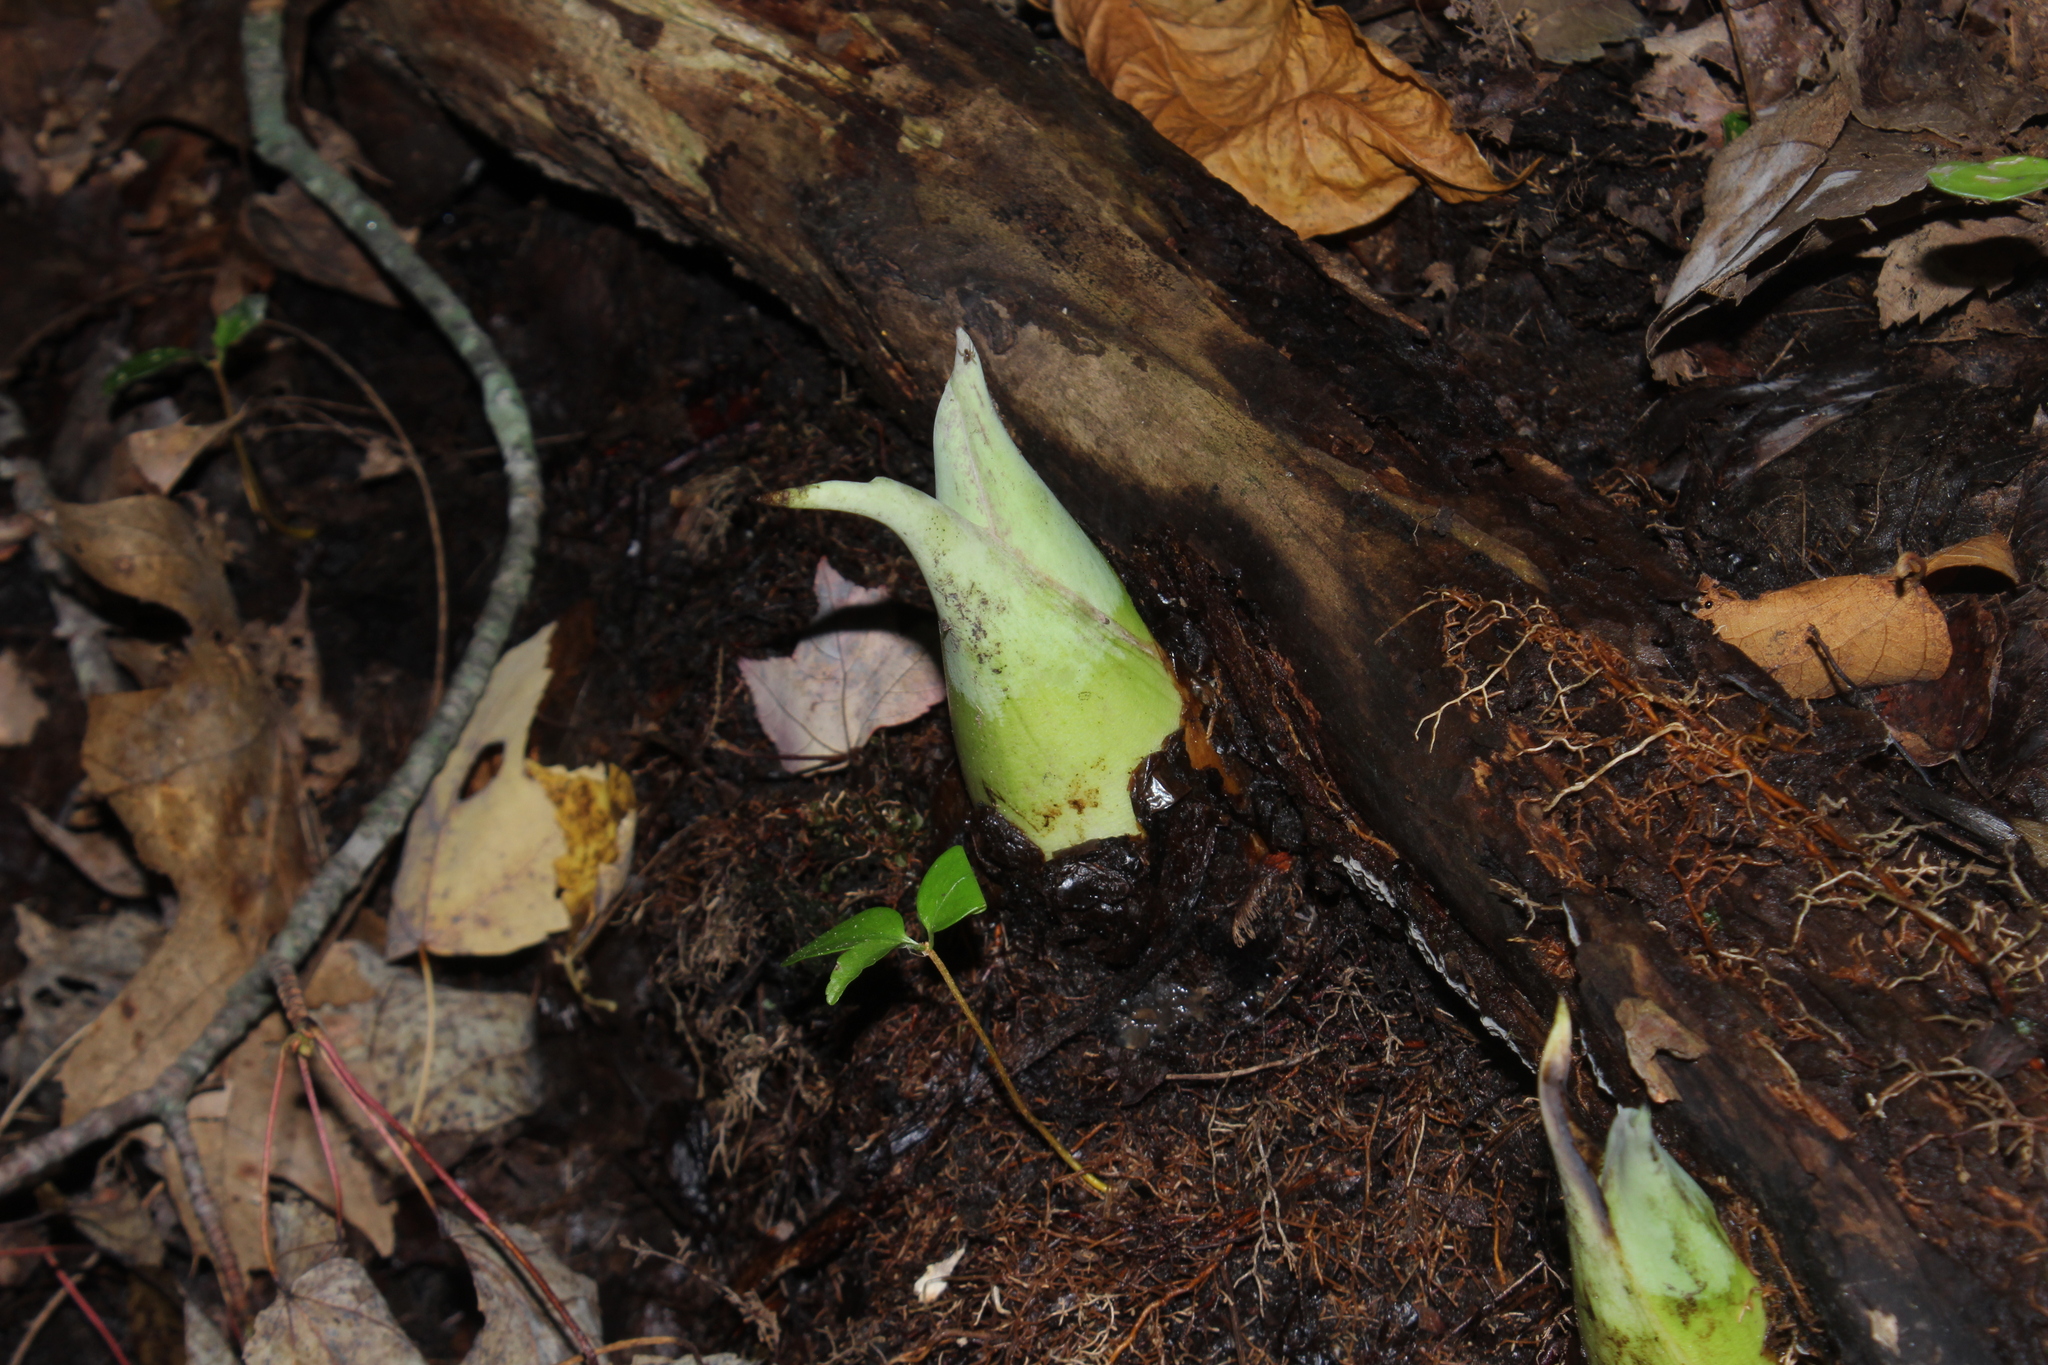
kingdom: Plantae
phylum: Tracheophyta
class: Liliopsida
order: Alismatales
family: Araceae
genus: Symplocarpus
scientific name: Symplocarpus foetidus
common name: Eastern skunk cabbage
